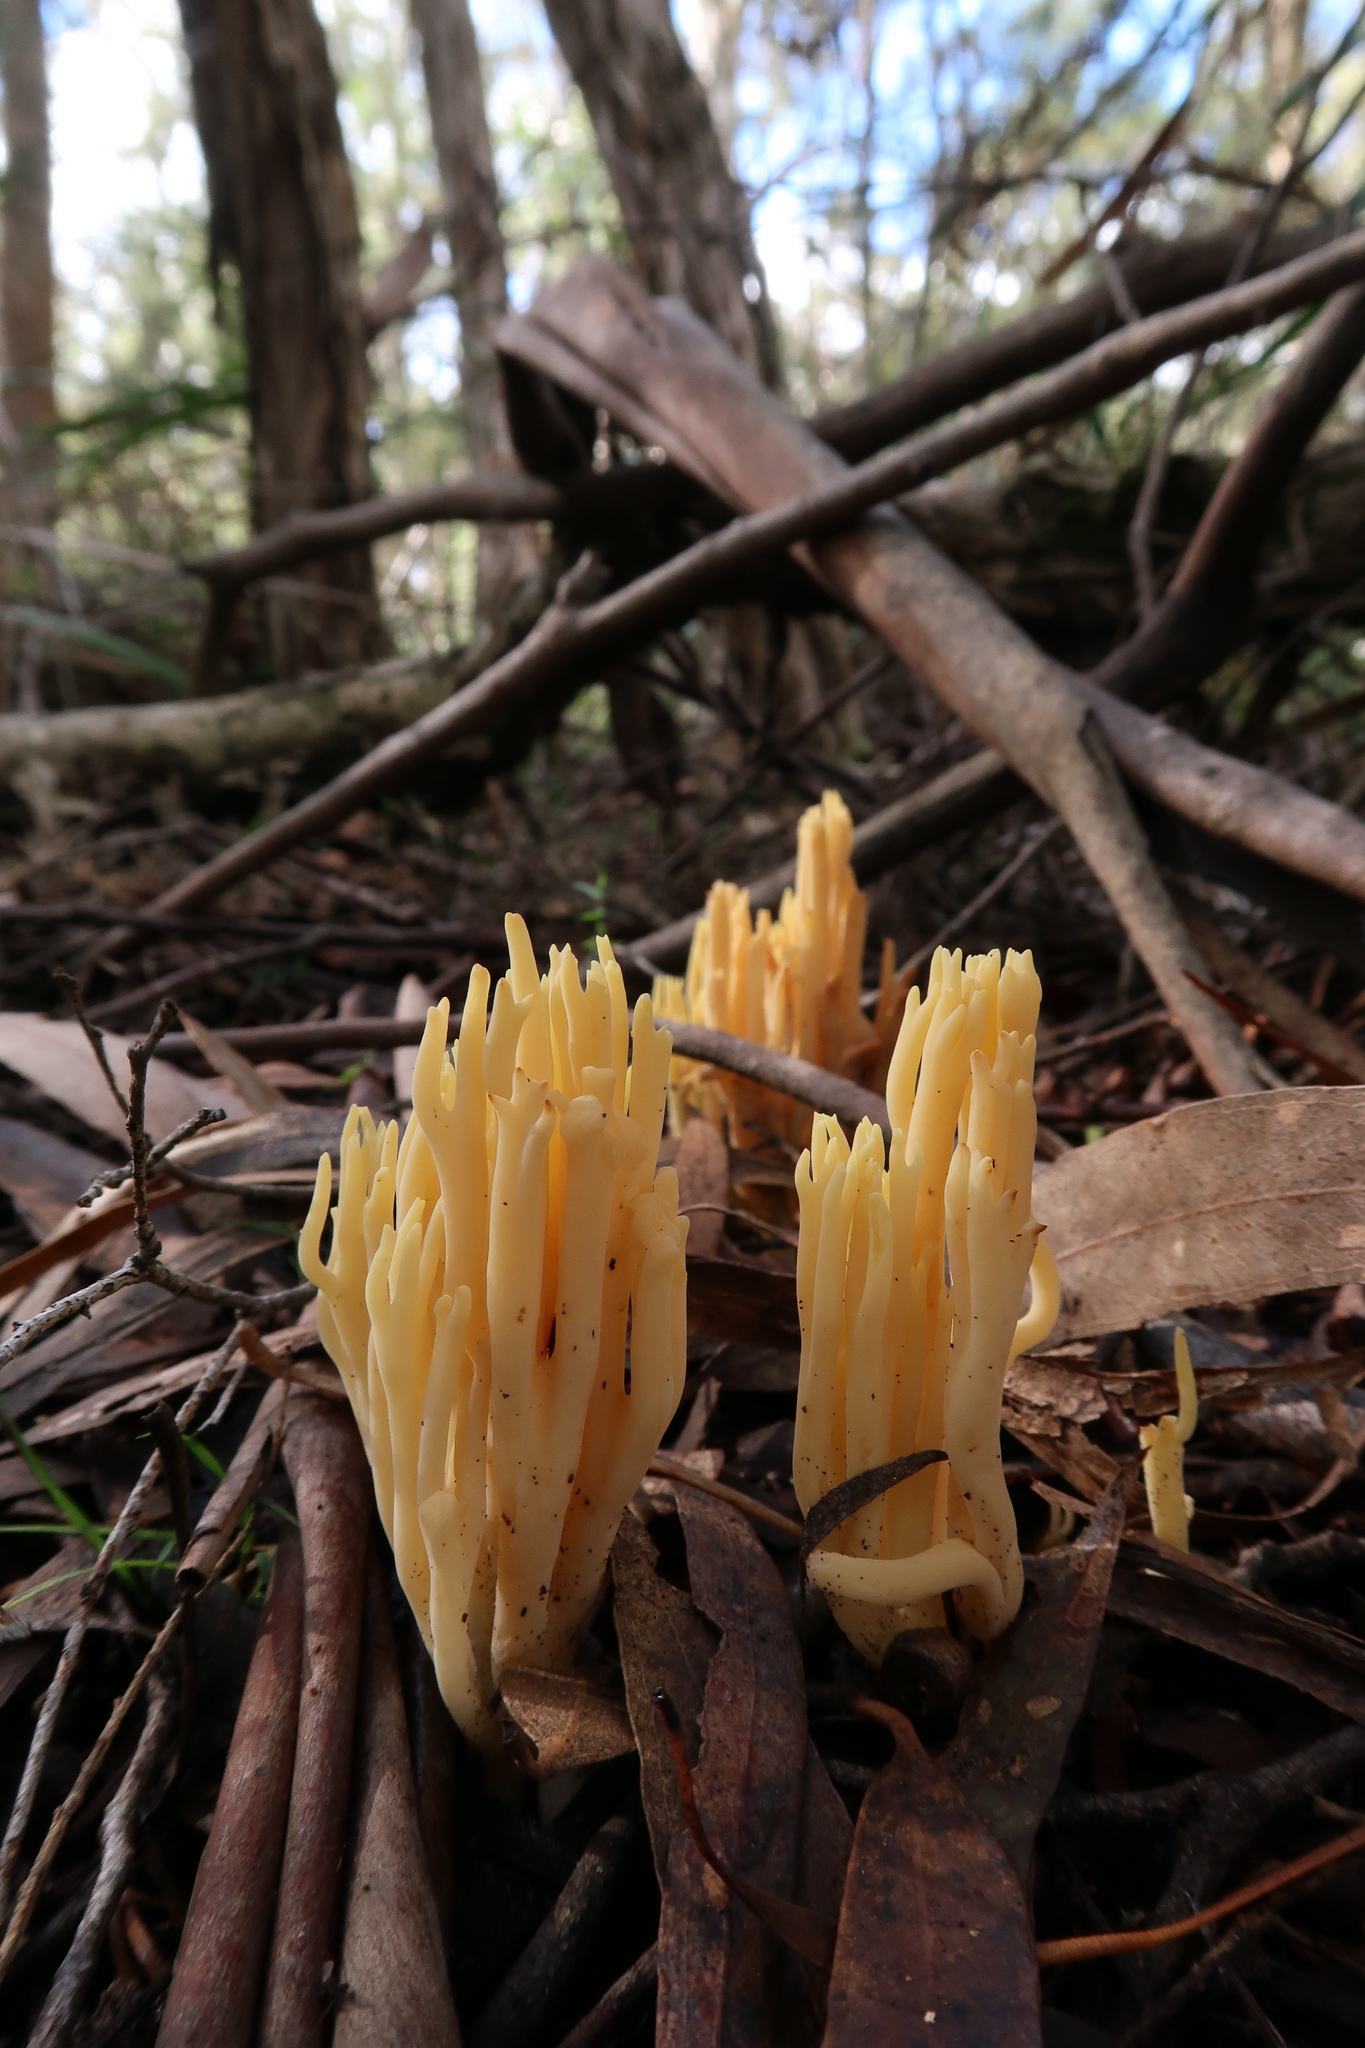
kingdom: Fungi
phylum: Basidiomycota
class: Agaricomycetes
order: Gomphales
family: Gomphaceae
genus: Ramaria
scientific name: Ramaria lorithamnus
